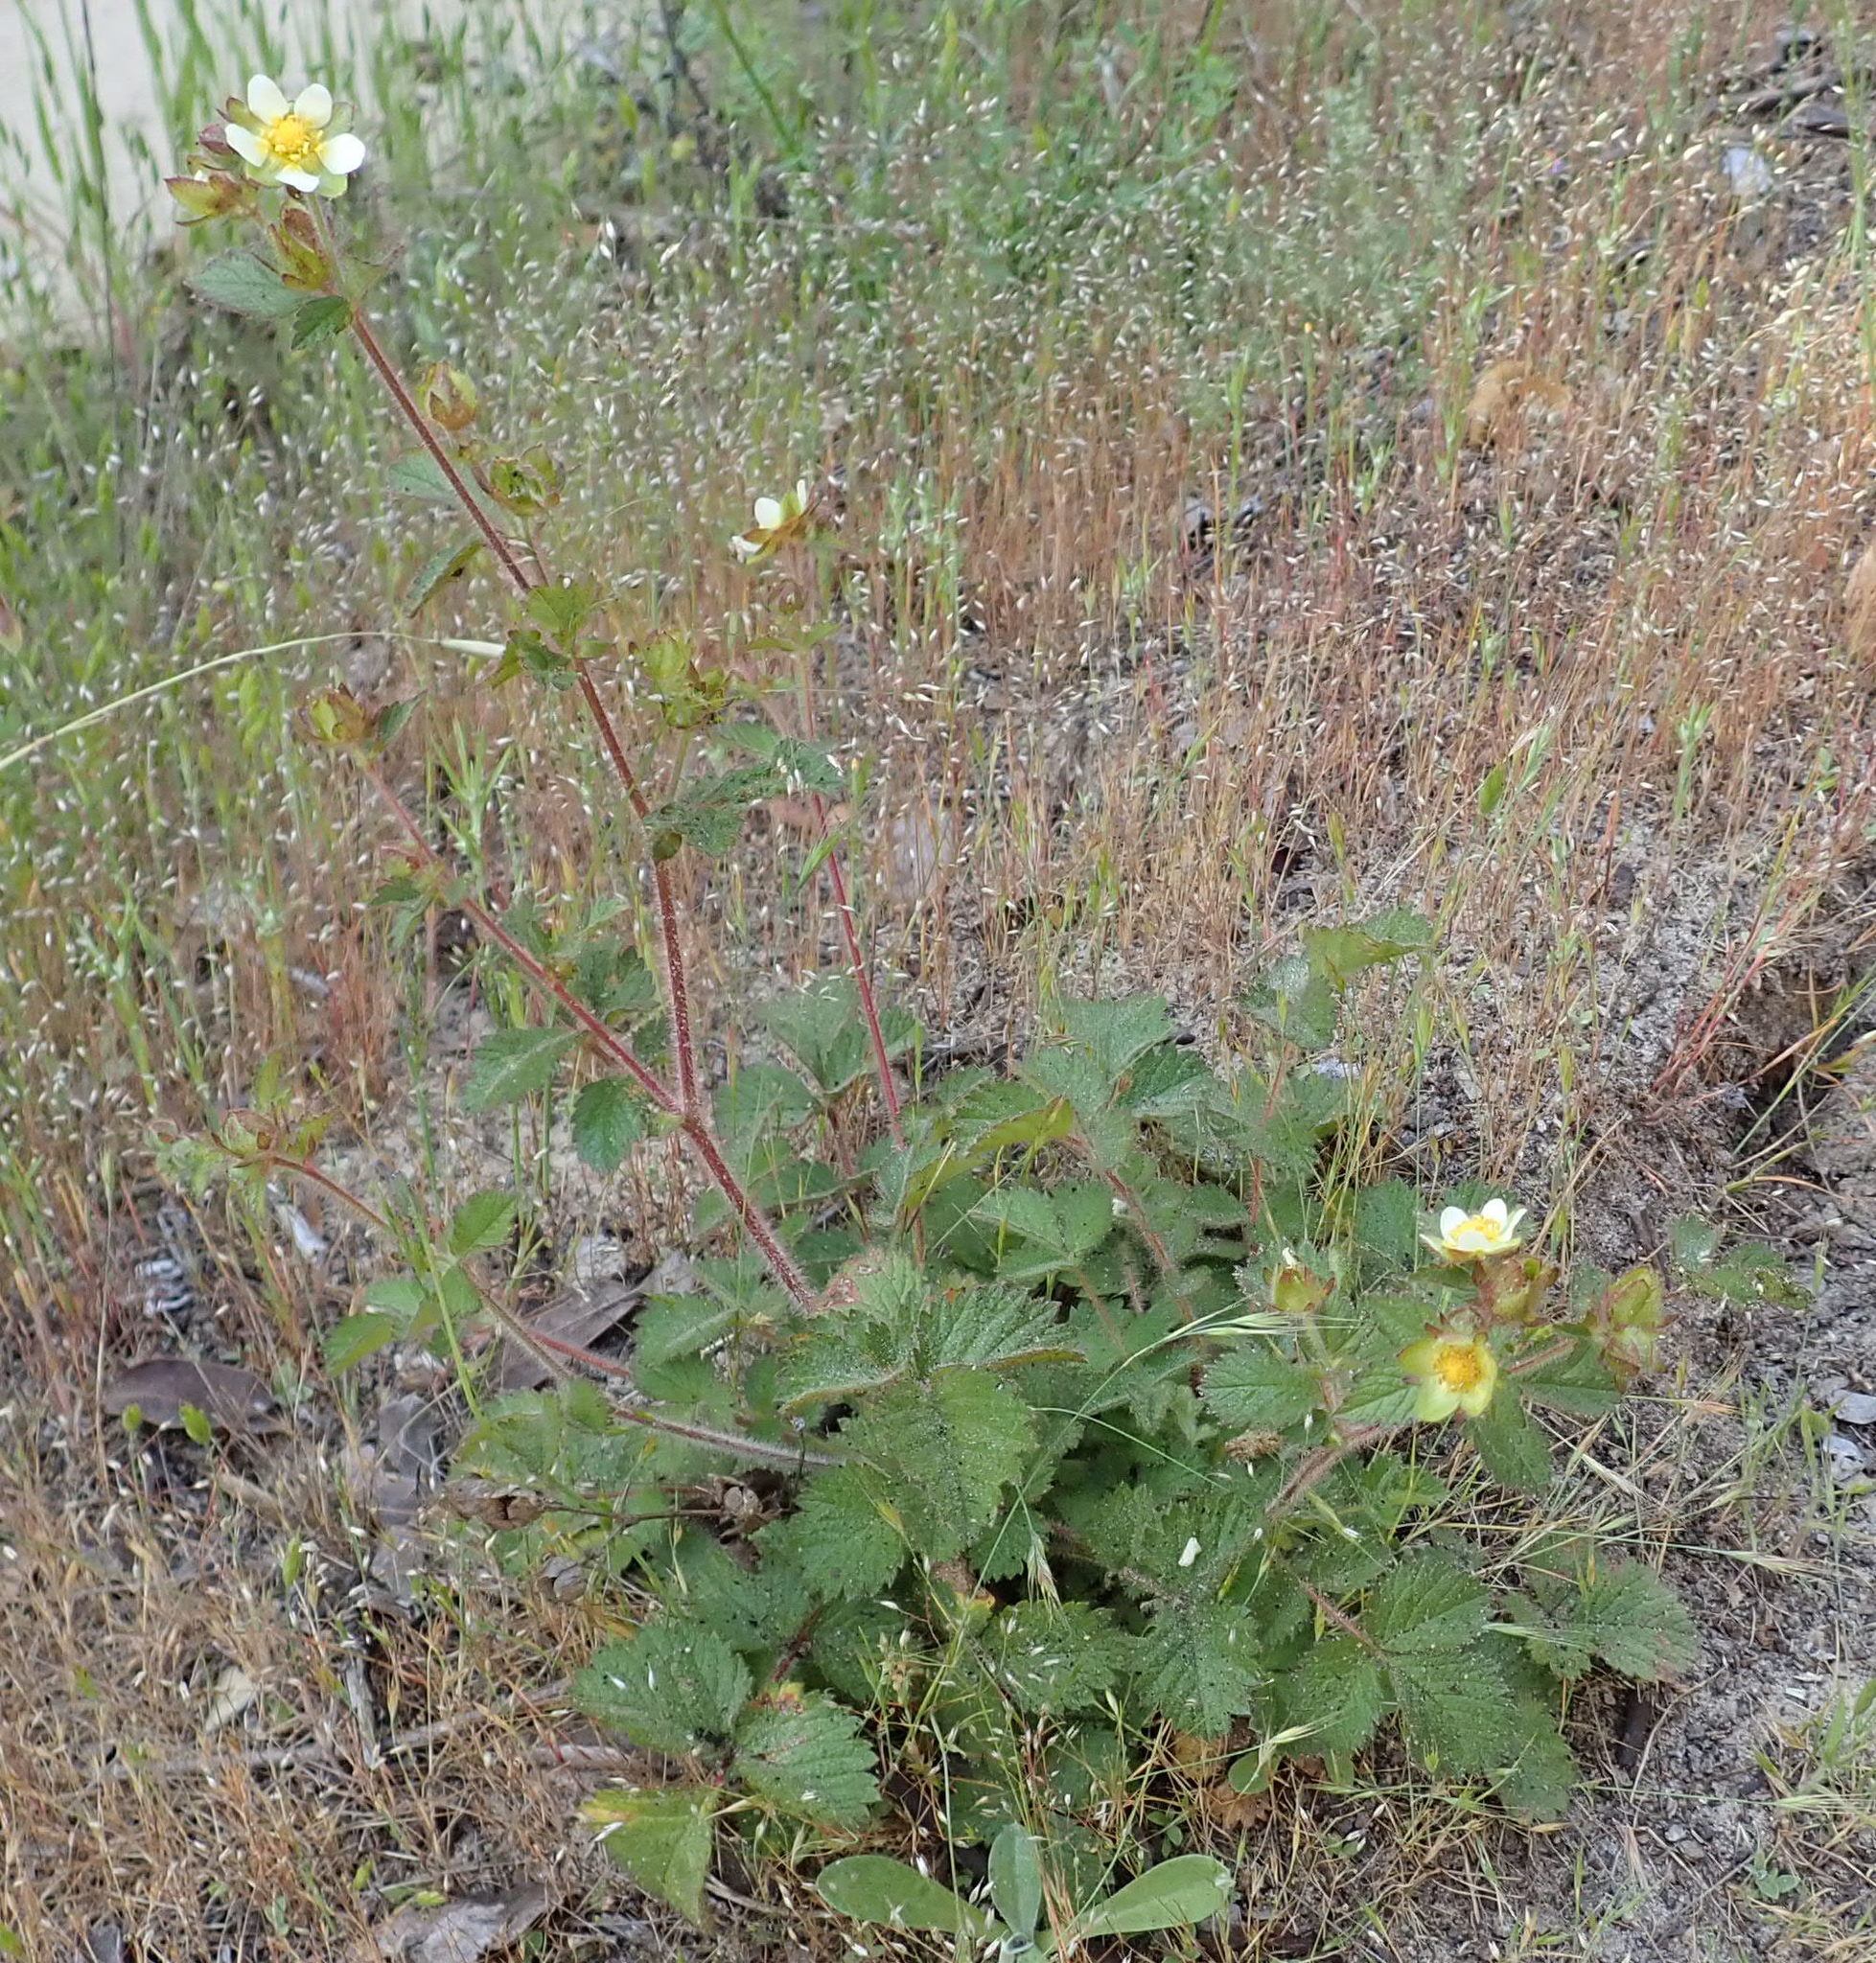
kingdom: Plantae
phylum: Tracheophyta
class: Magnoliopsida
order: Rosales
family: Rosaceae
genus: Drymocallis
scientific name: Drymocallis glandulosa
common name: Sticky cinquefoil
